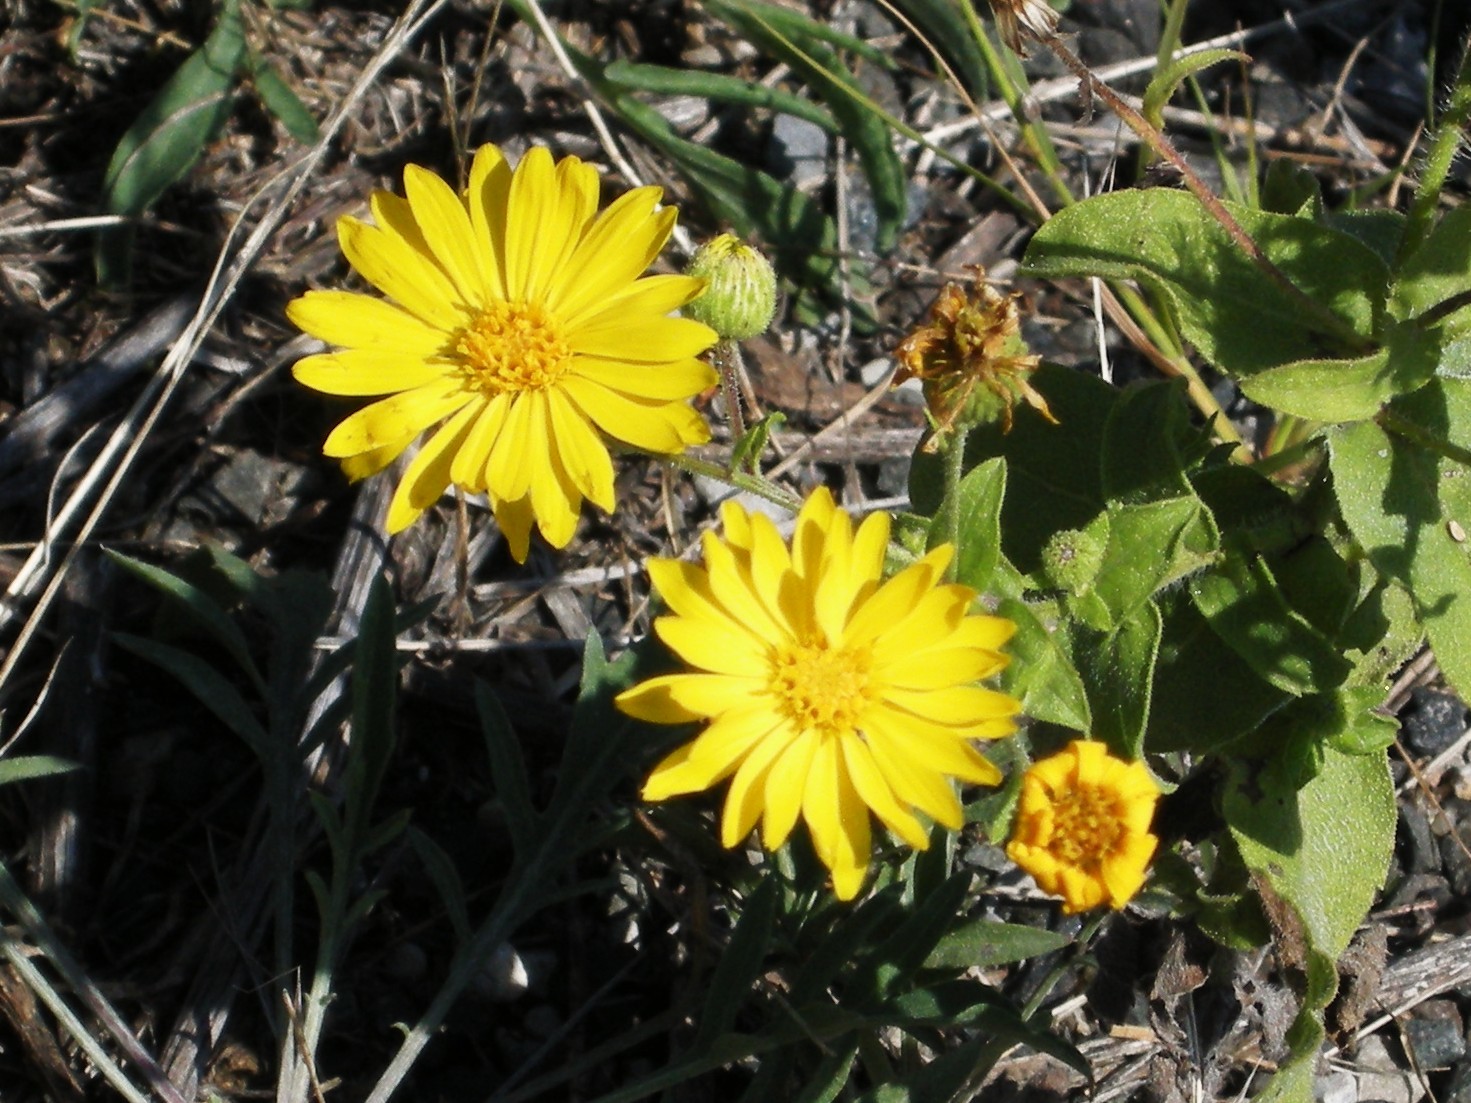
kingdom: Plantae
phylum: Tracheophyta
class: Magnoliopsida
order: Asterales
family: Asteraceae
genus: Heterotheca
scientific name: Heterotheca subaxillaris
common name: Camphorweed
